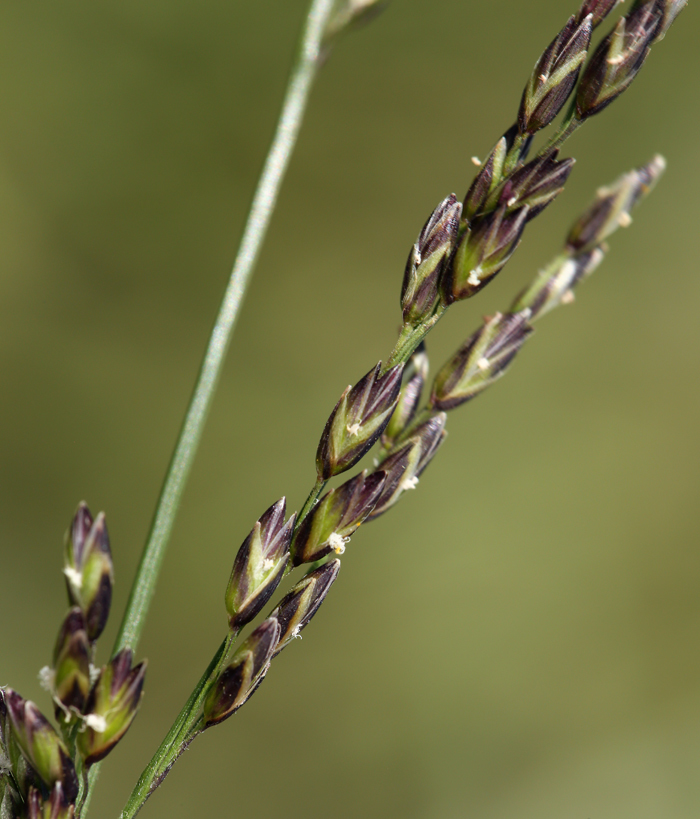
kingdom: Plantae
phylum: Tracheophyta
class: Liliopsida
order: Poales
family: Poaceae
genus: Melica
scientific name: Melica imperfecta
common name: California melic
